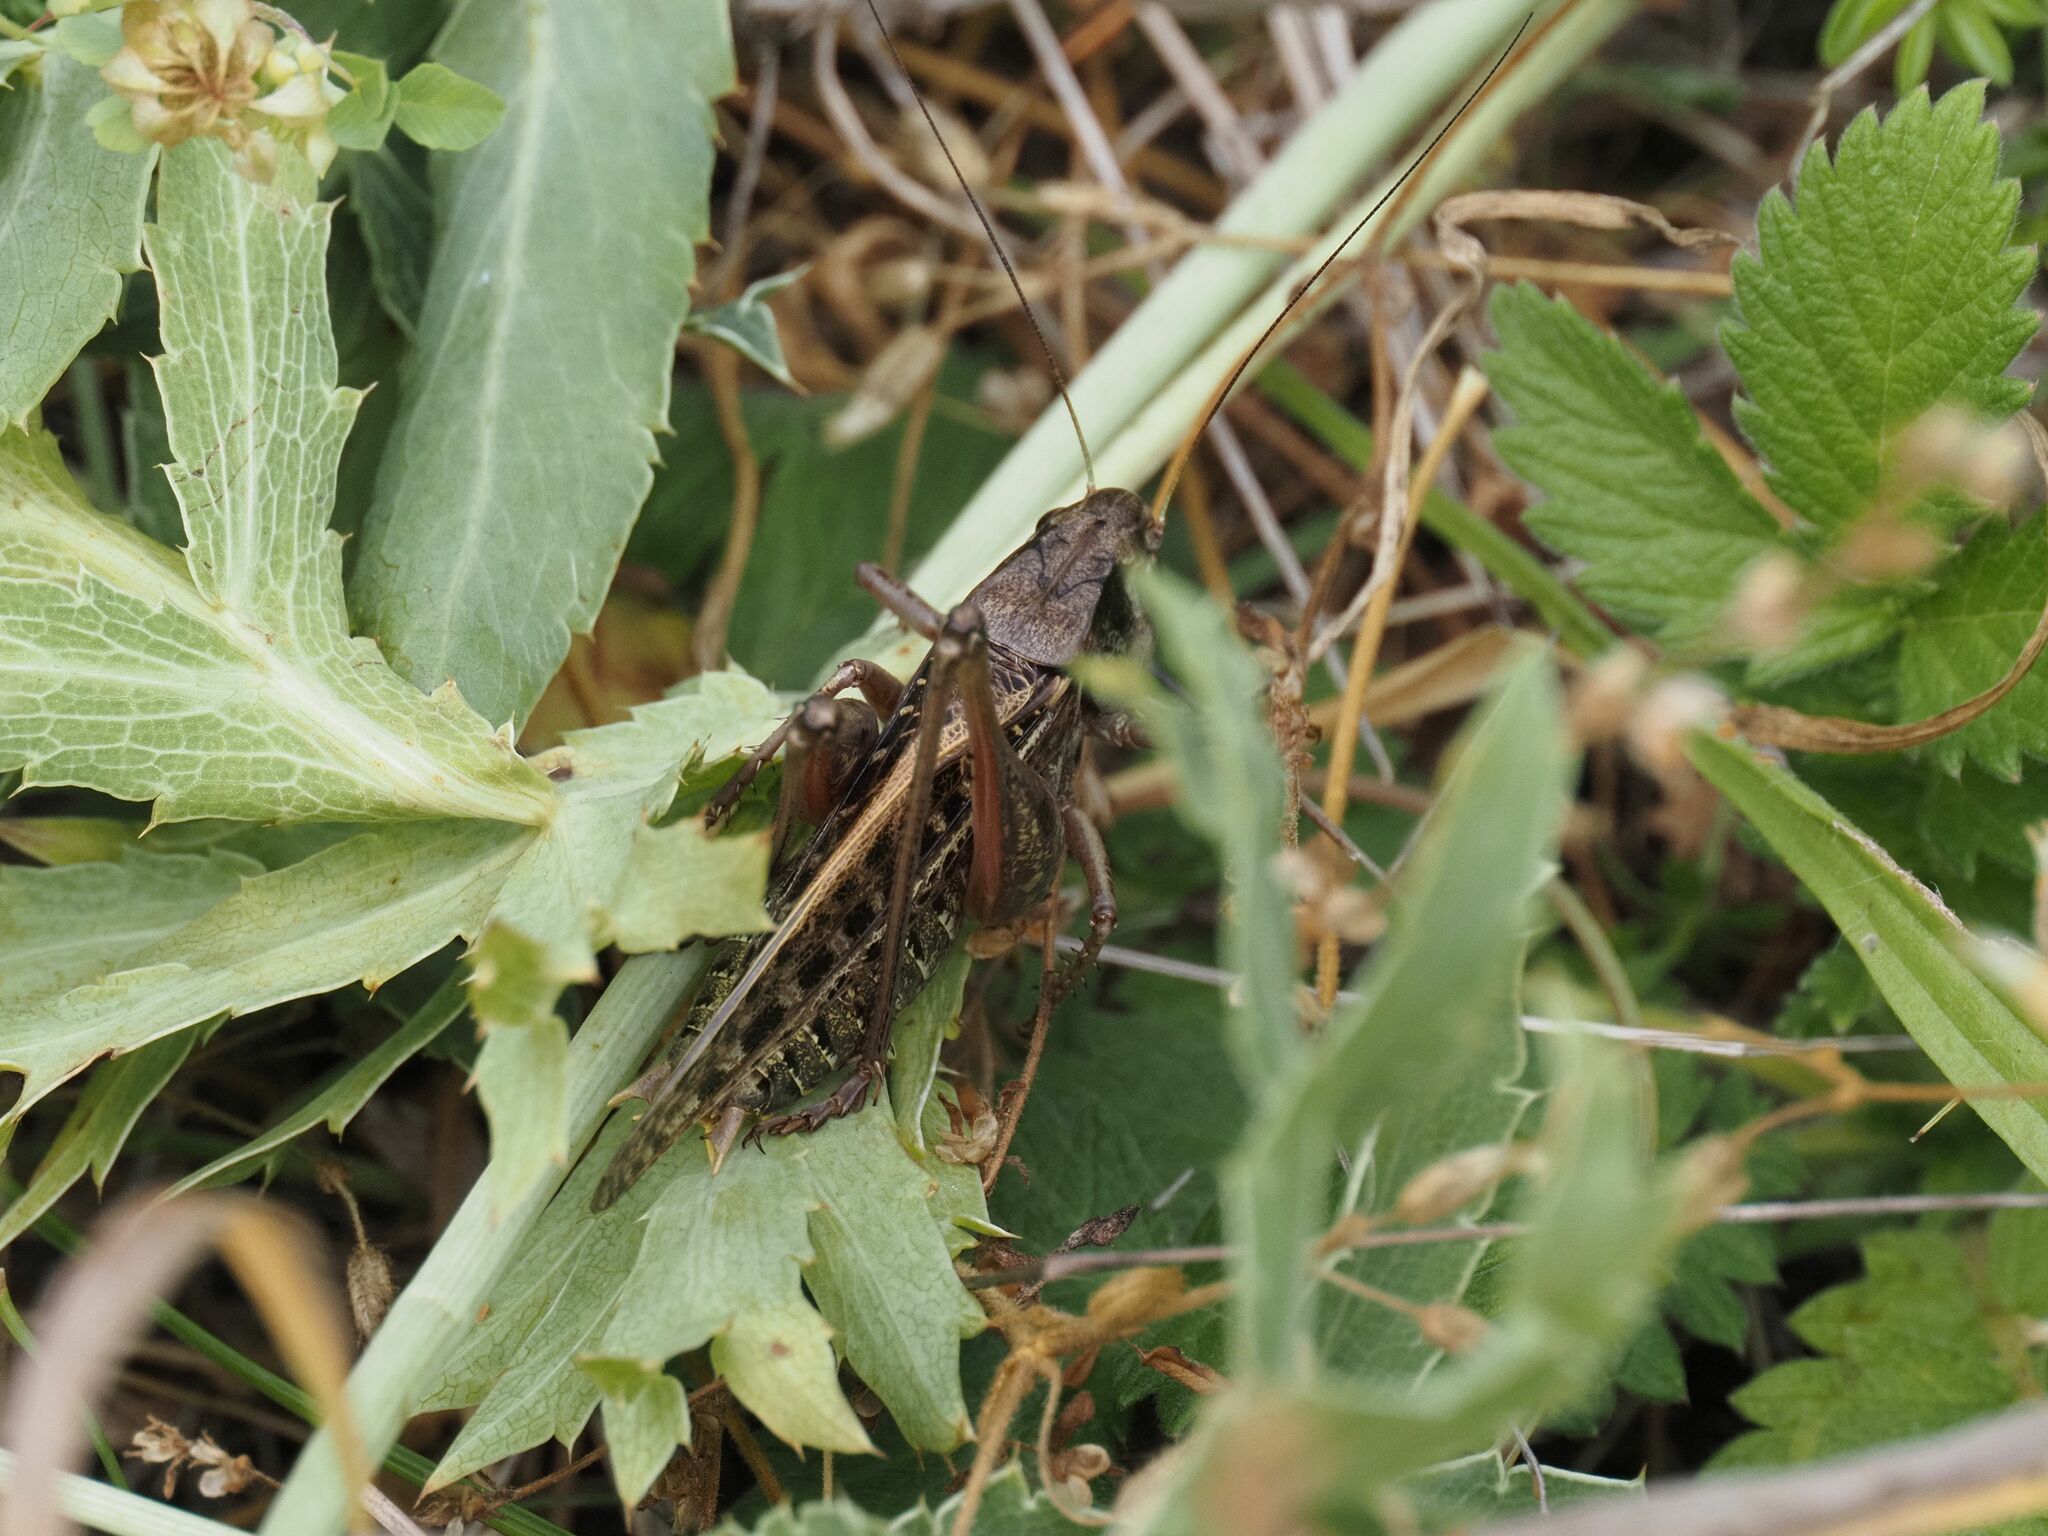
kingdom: Animalia
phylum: Arthropoda
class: Insecta
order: Orthoptera
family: Tettigoniidae
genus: Decticus
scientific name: Decticus verrucivorus
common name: Wart-biter
